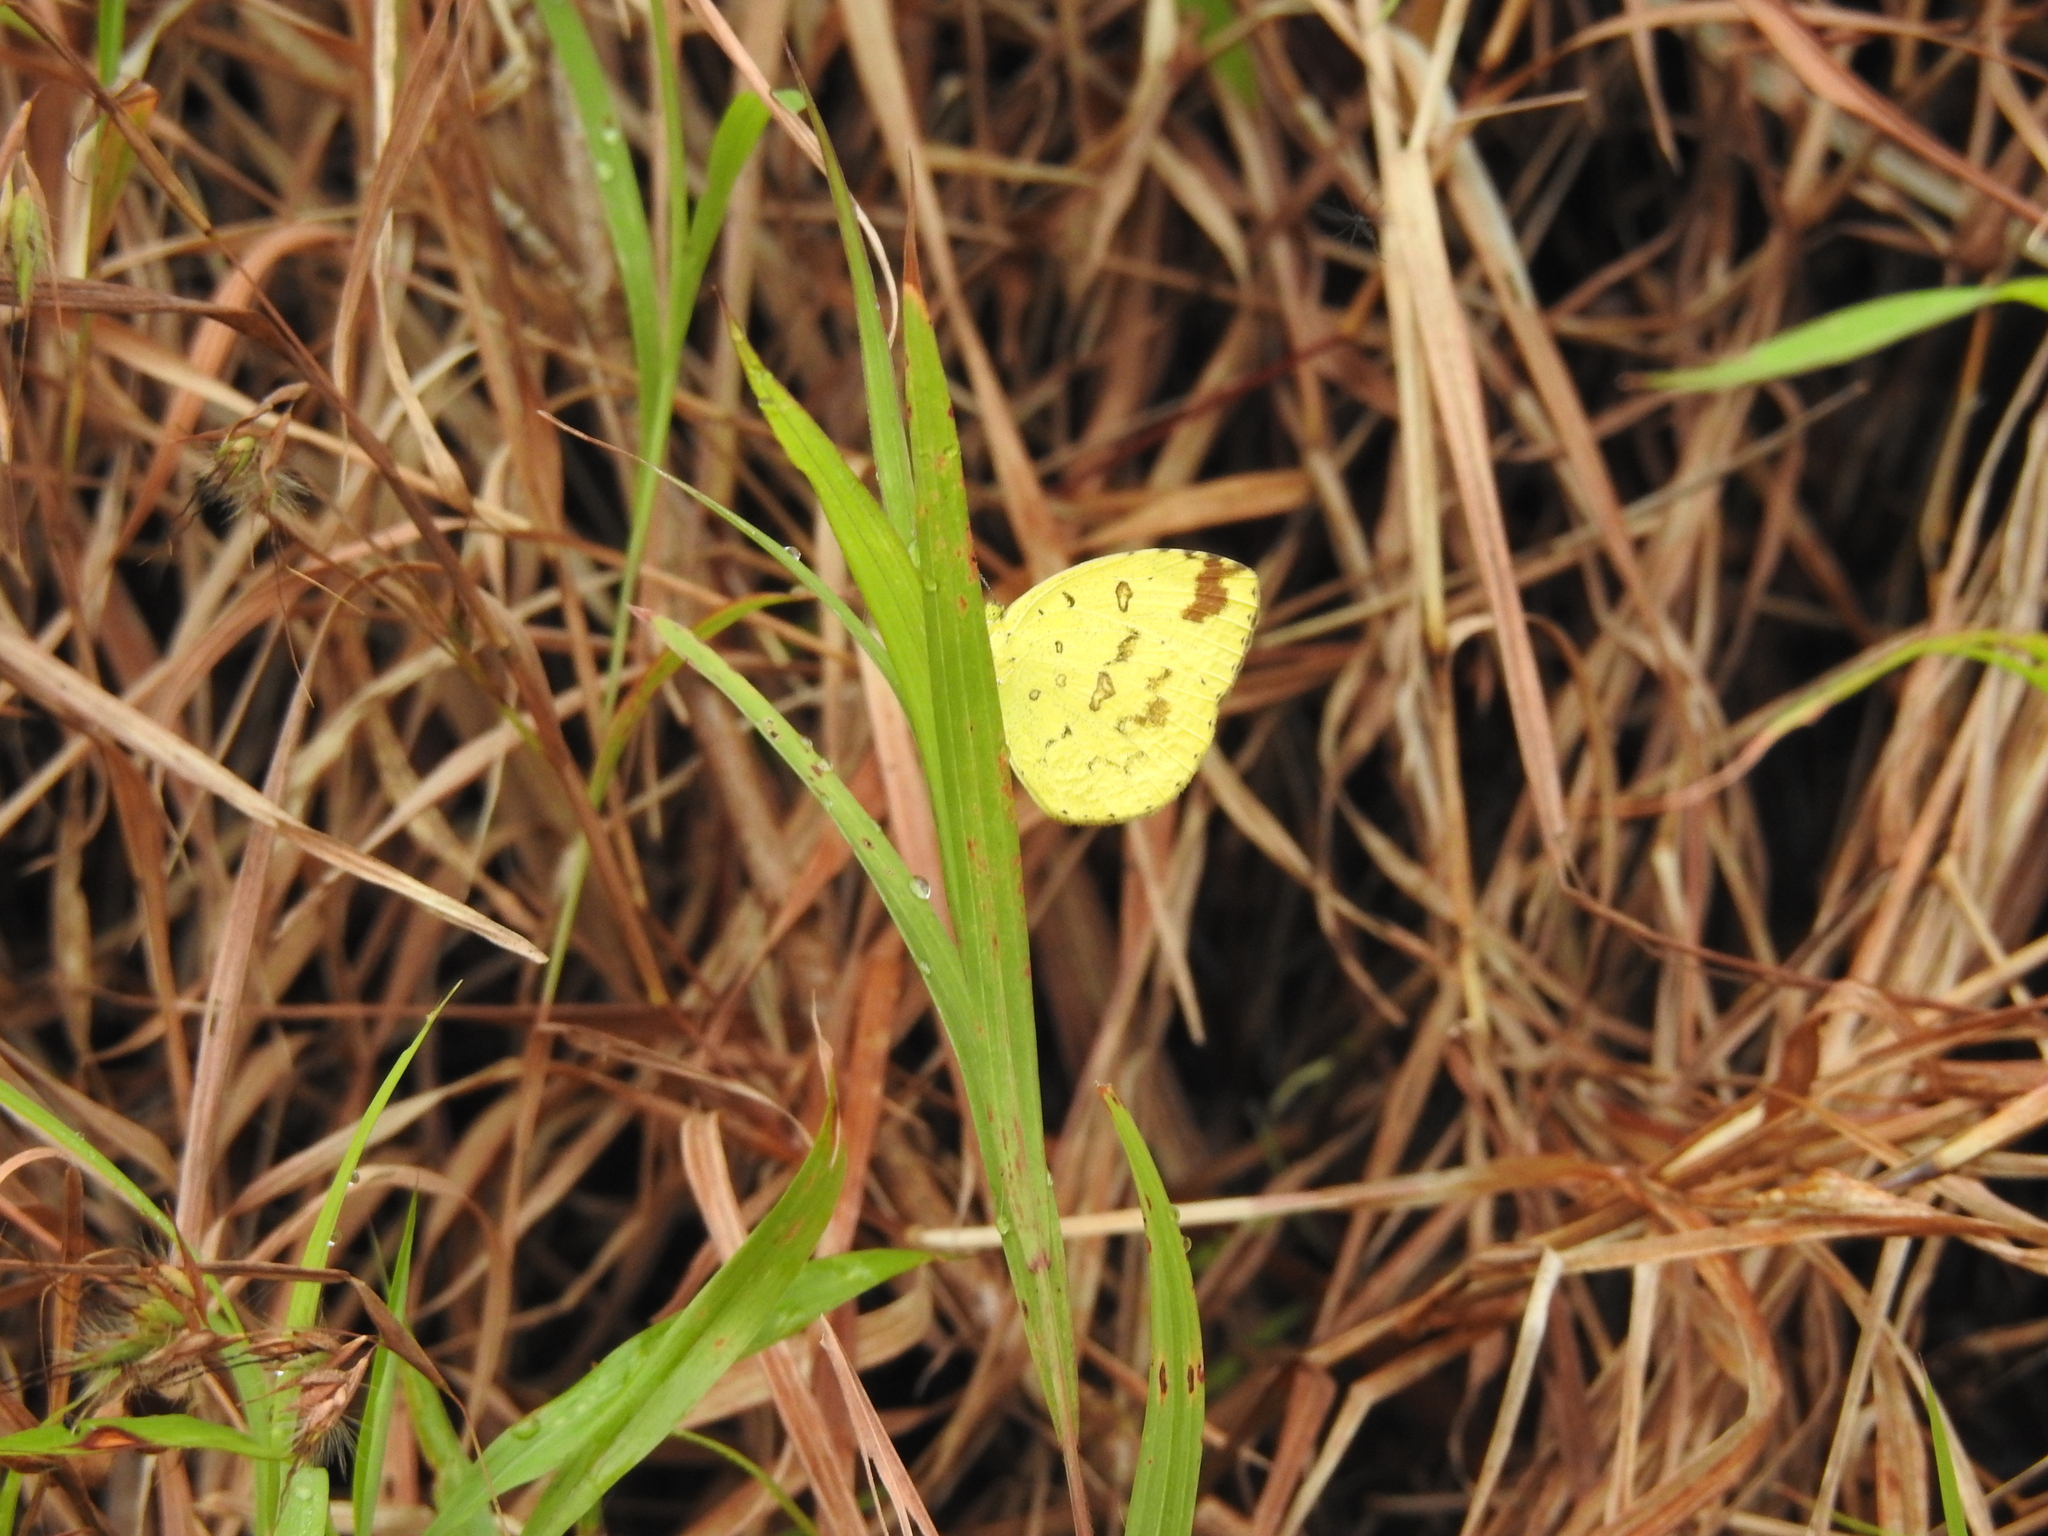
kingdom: Animalia
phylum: Arthropoda
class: Insecta
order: Lepidoptera
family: Pieridae
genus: Eurema
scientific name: Eurema hecabe
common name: Pale grass yellow
